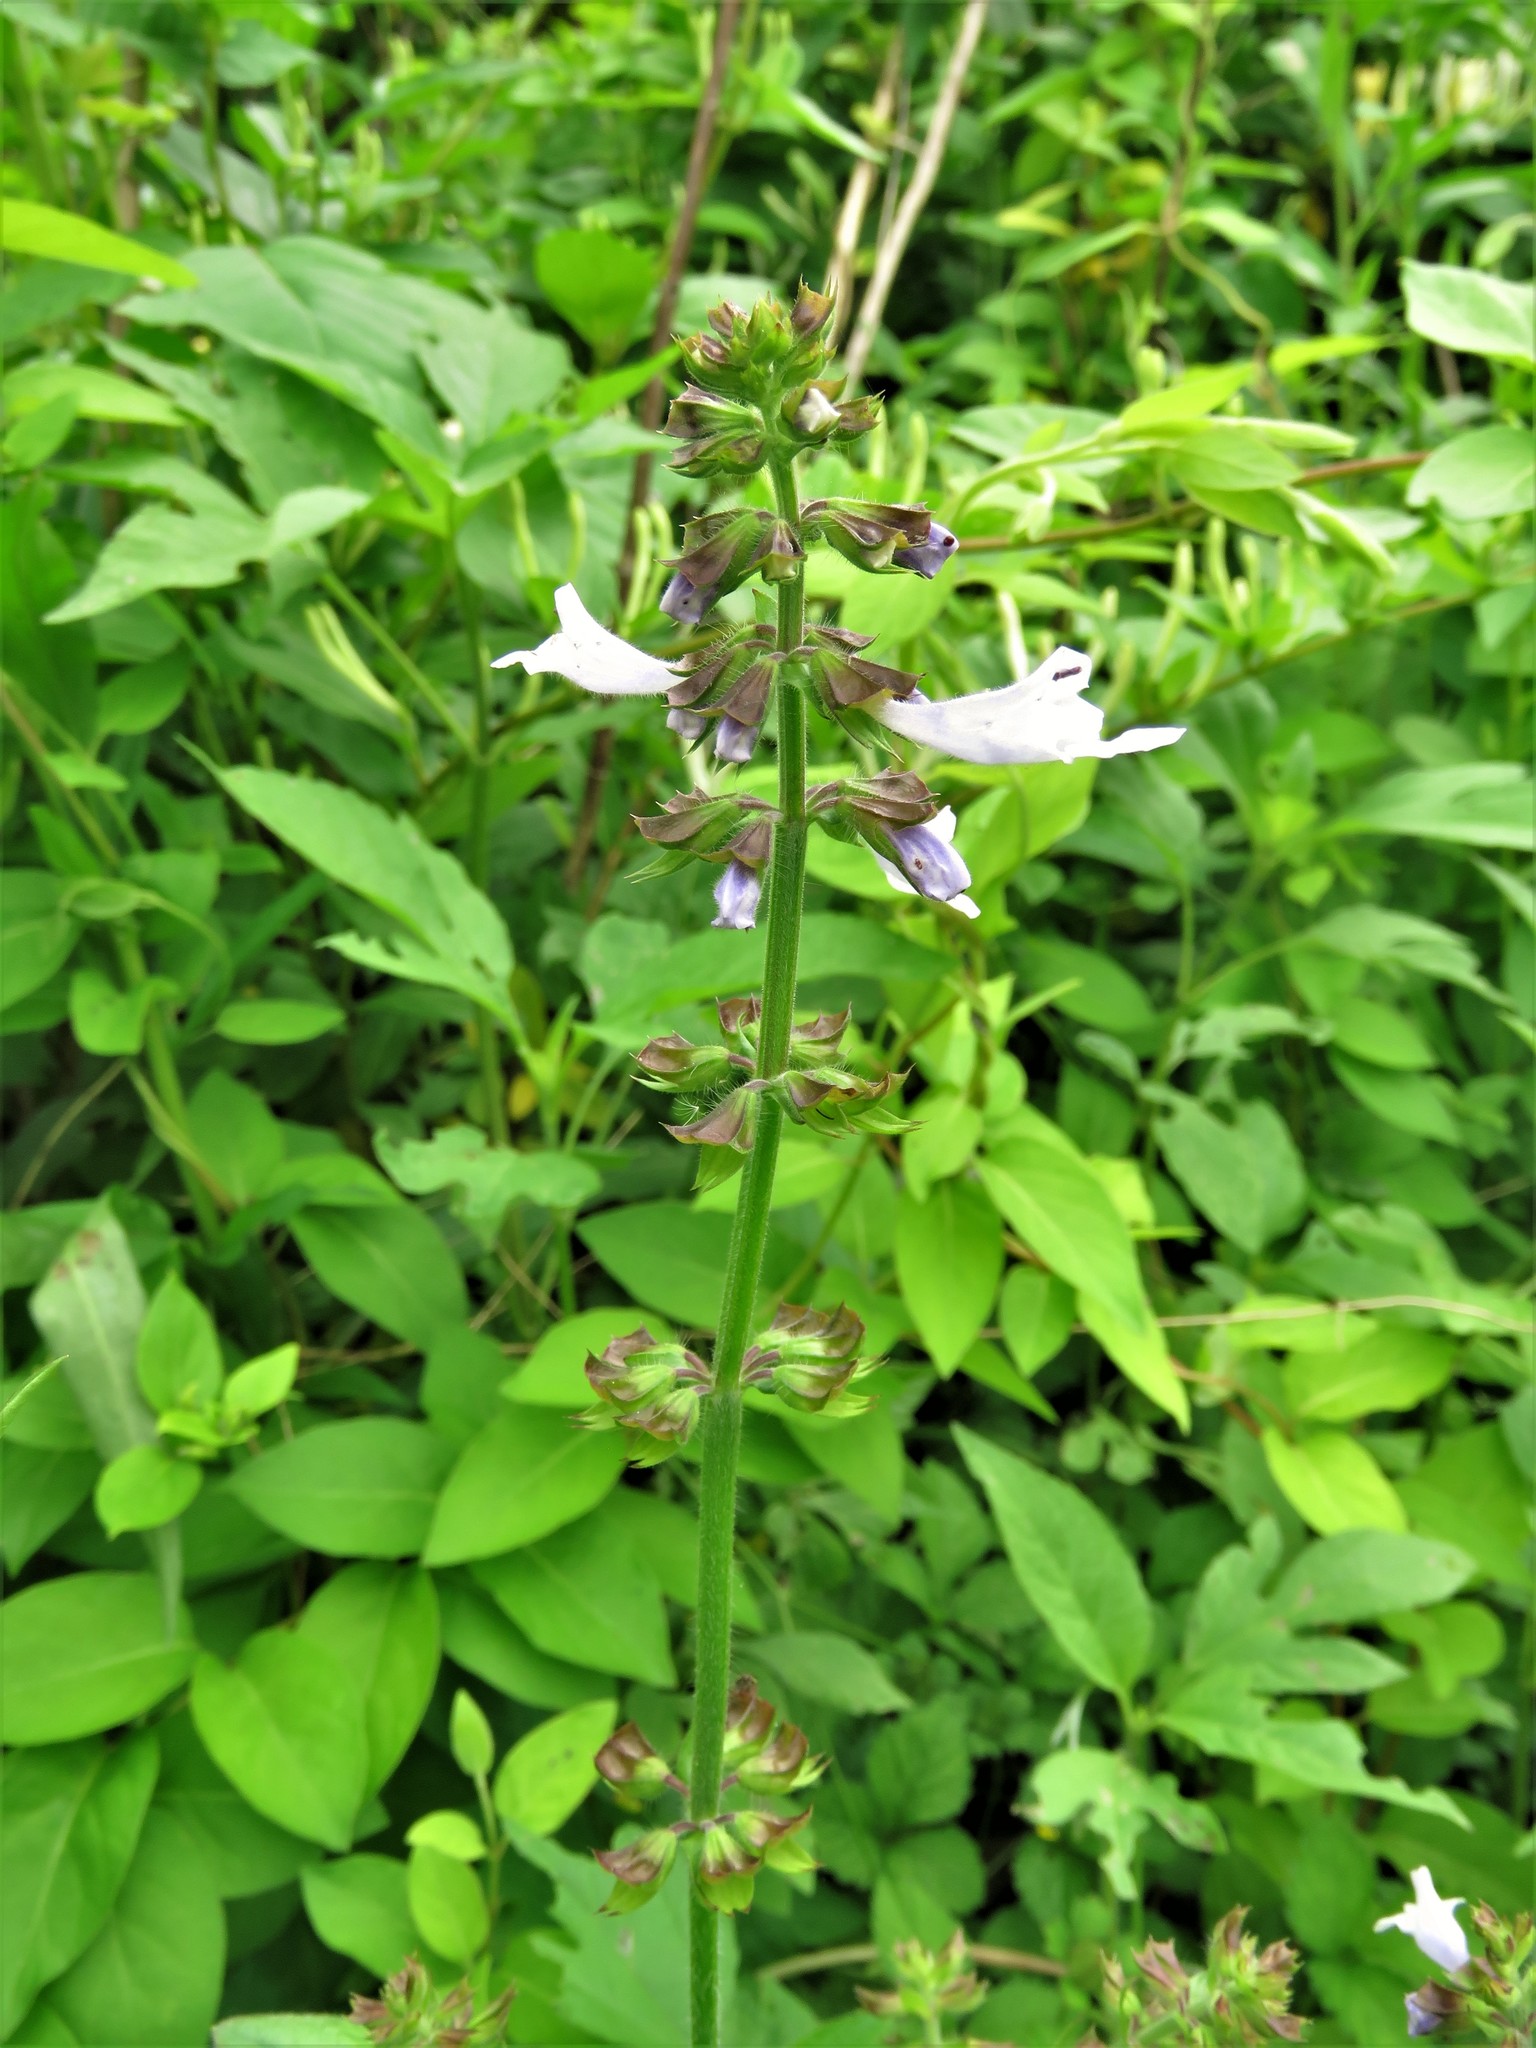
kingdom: Plantae
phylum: Tracheophyta
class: Magnoliopsida
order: Lamiales
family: Lamiaceae
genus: Salvia
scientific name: Salvia lyrata
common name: Cancerweed
